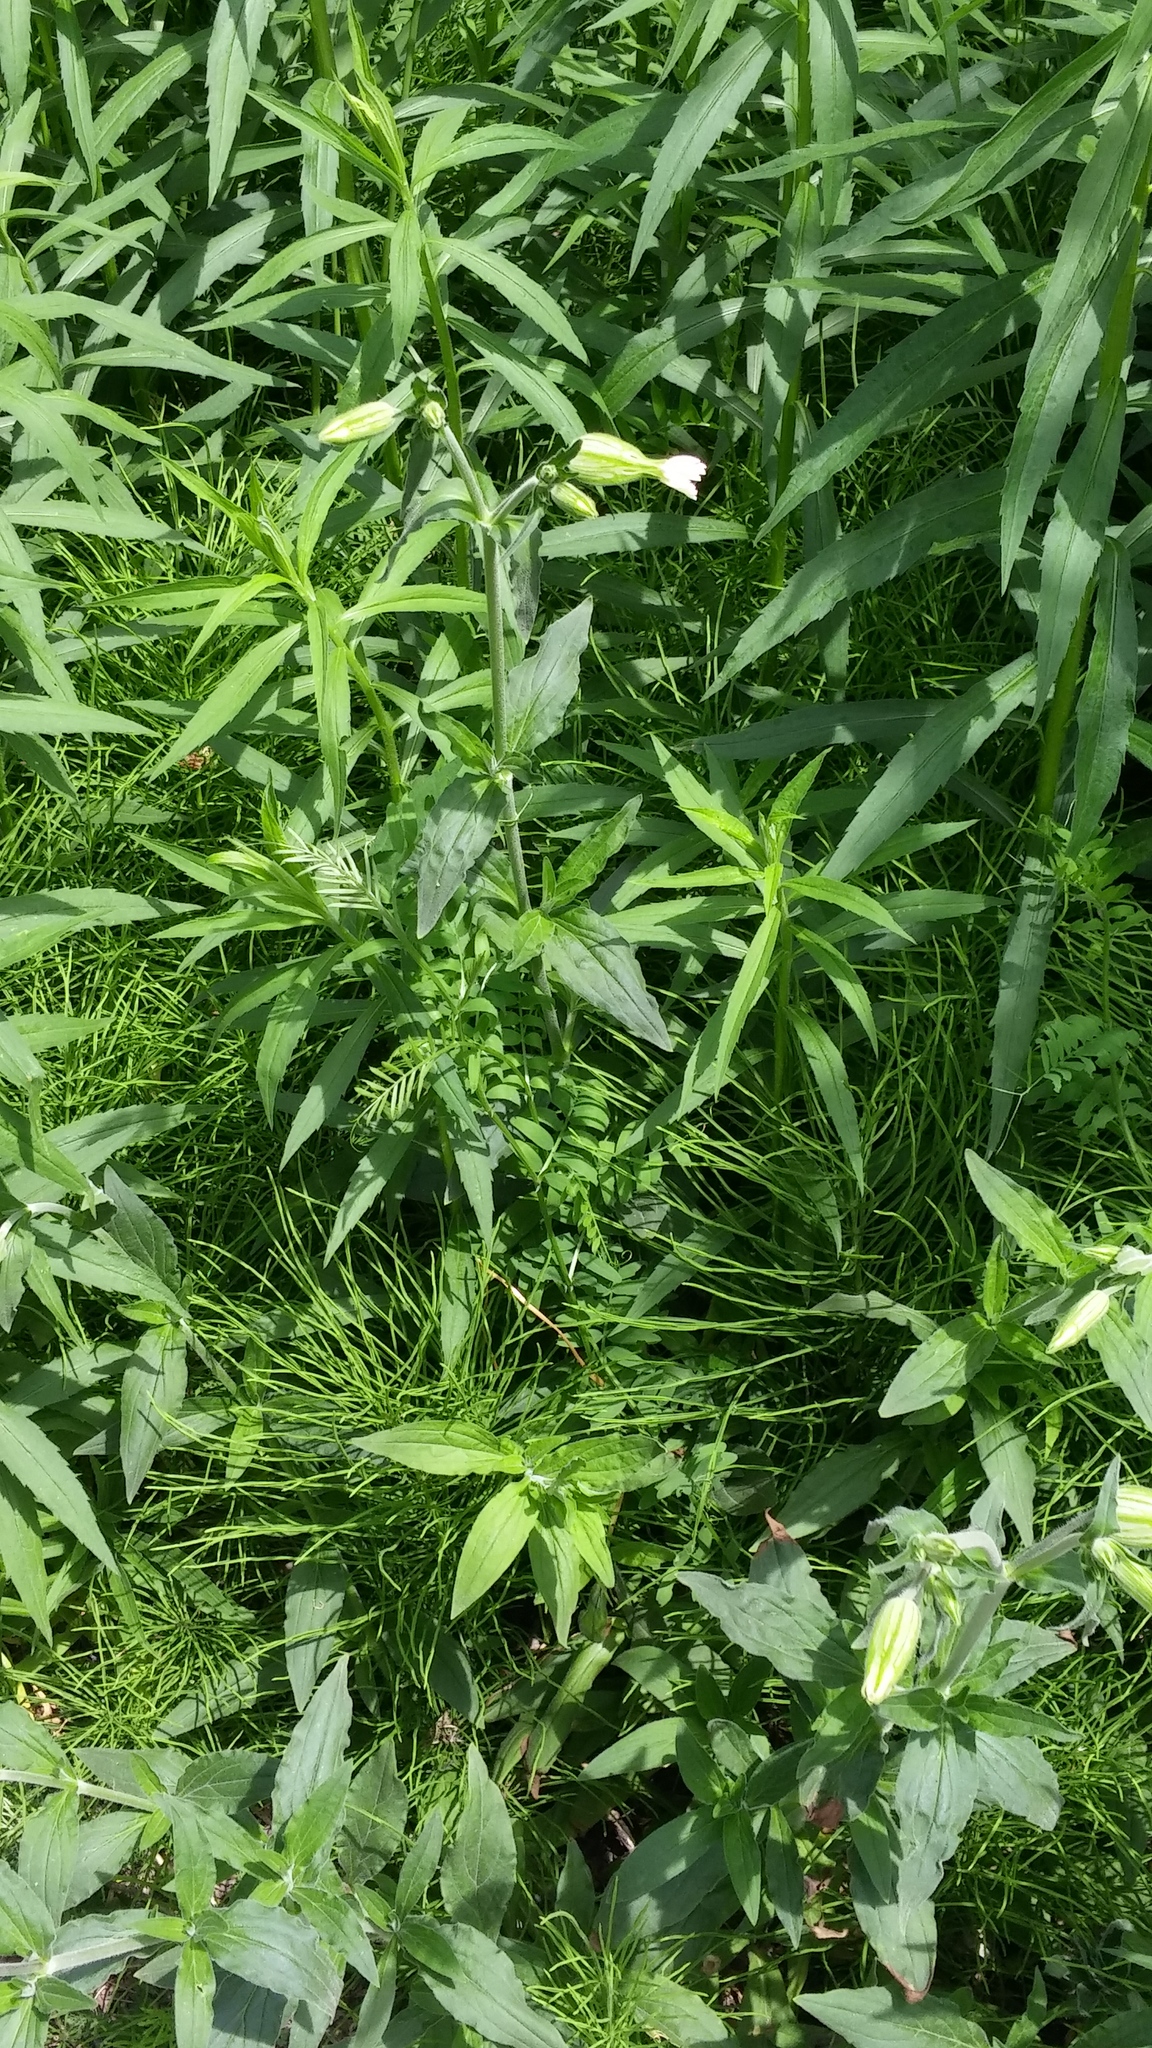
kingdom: Plantae
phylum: Tracheophyta
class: Magnoliopsida
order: Caryophyllales
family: Caryophyllaceae
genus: Silene
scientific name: Silene latifolia
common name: White campion
